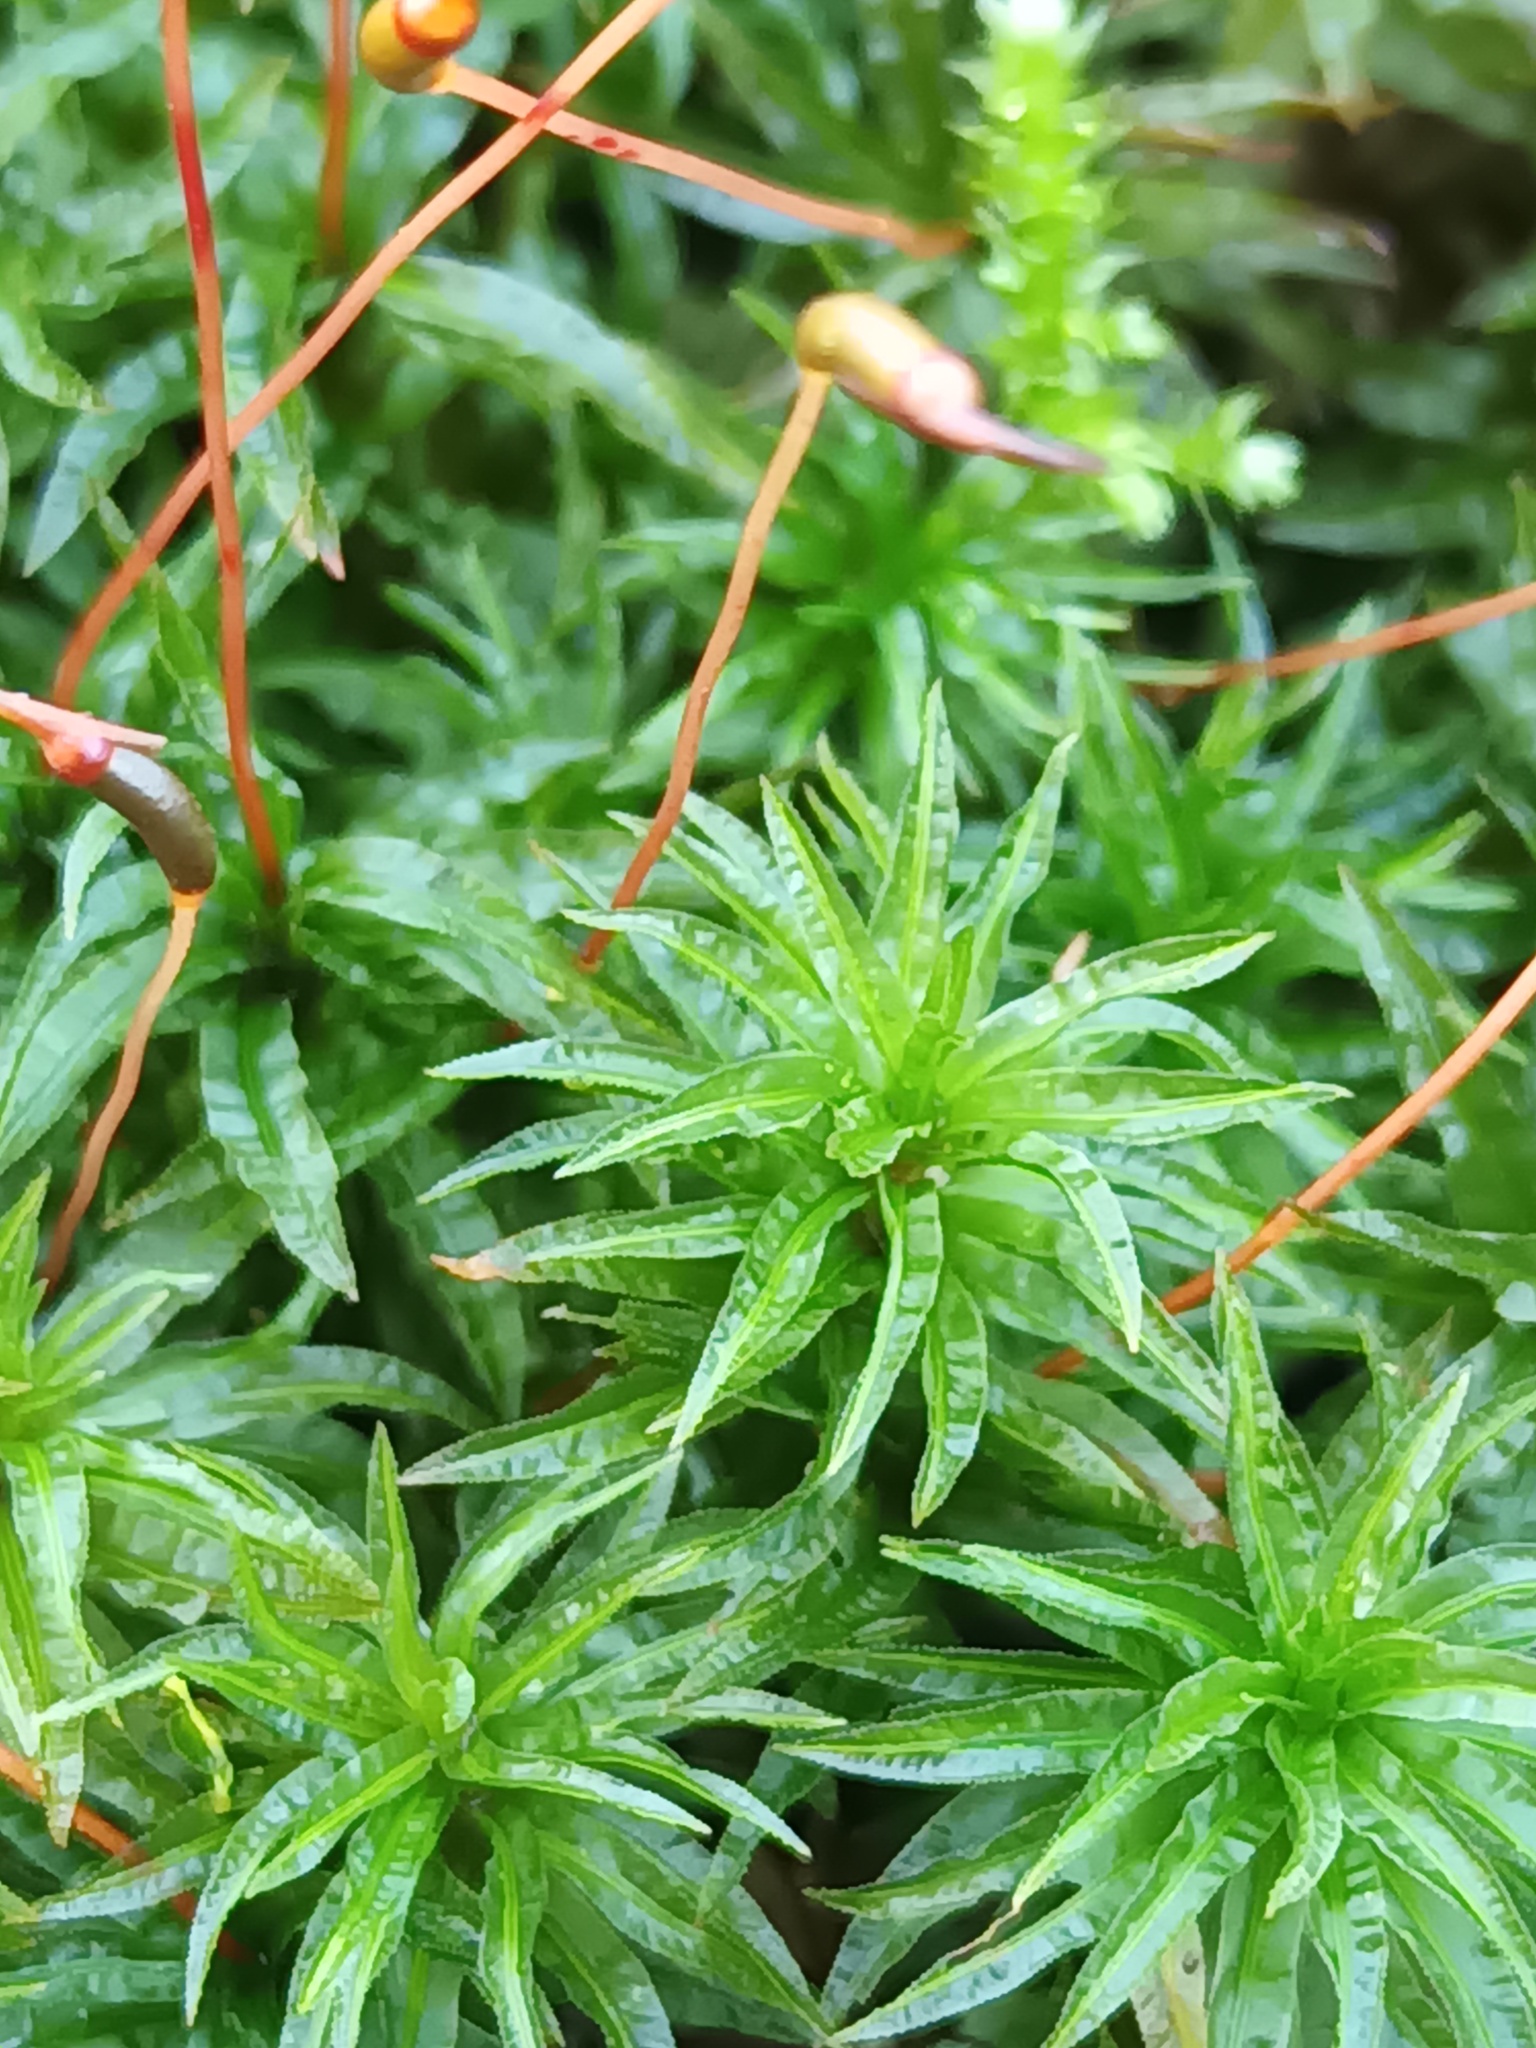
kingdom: Plantae
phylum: Bryophyta
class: Polytrichopsida
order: Polytrichales
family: Polytrichaceae
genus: Atrichum
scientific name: Atrichum undulatum
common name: Common smoothcap
